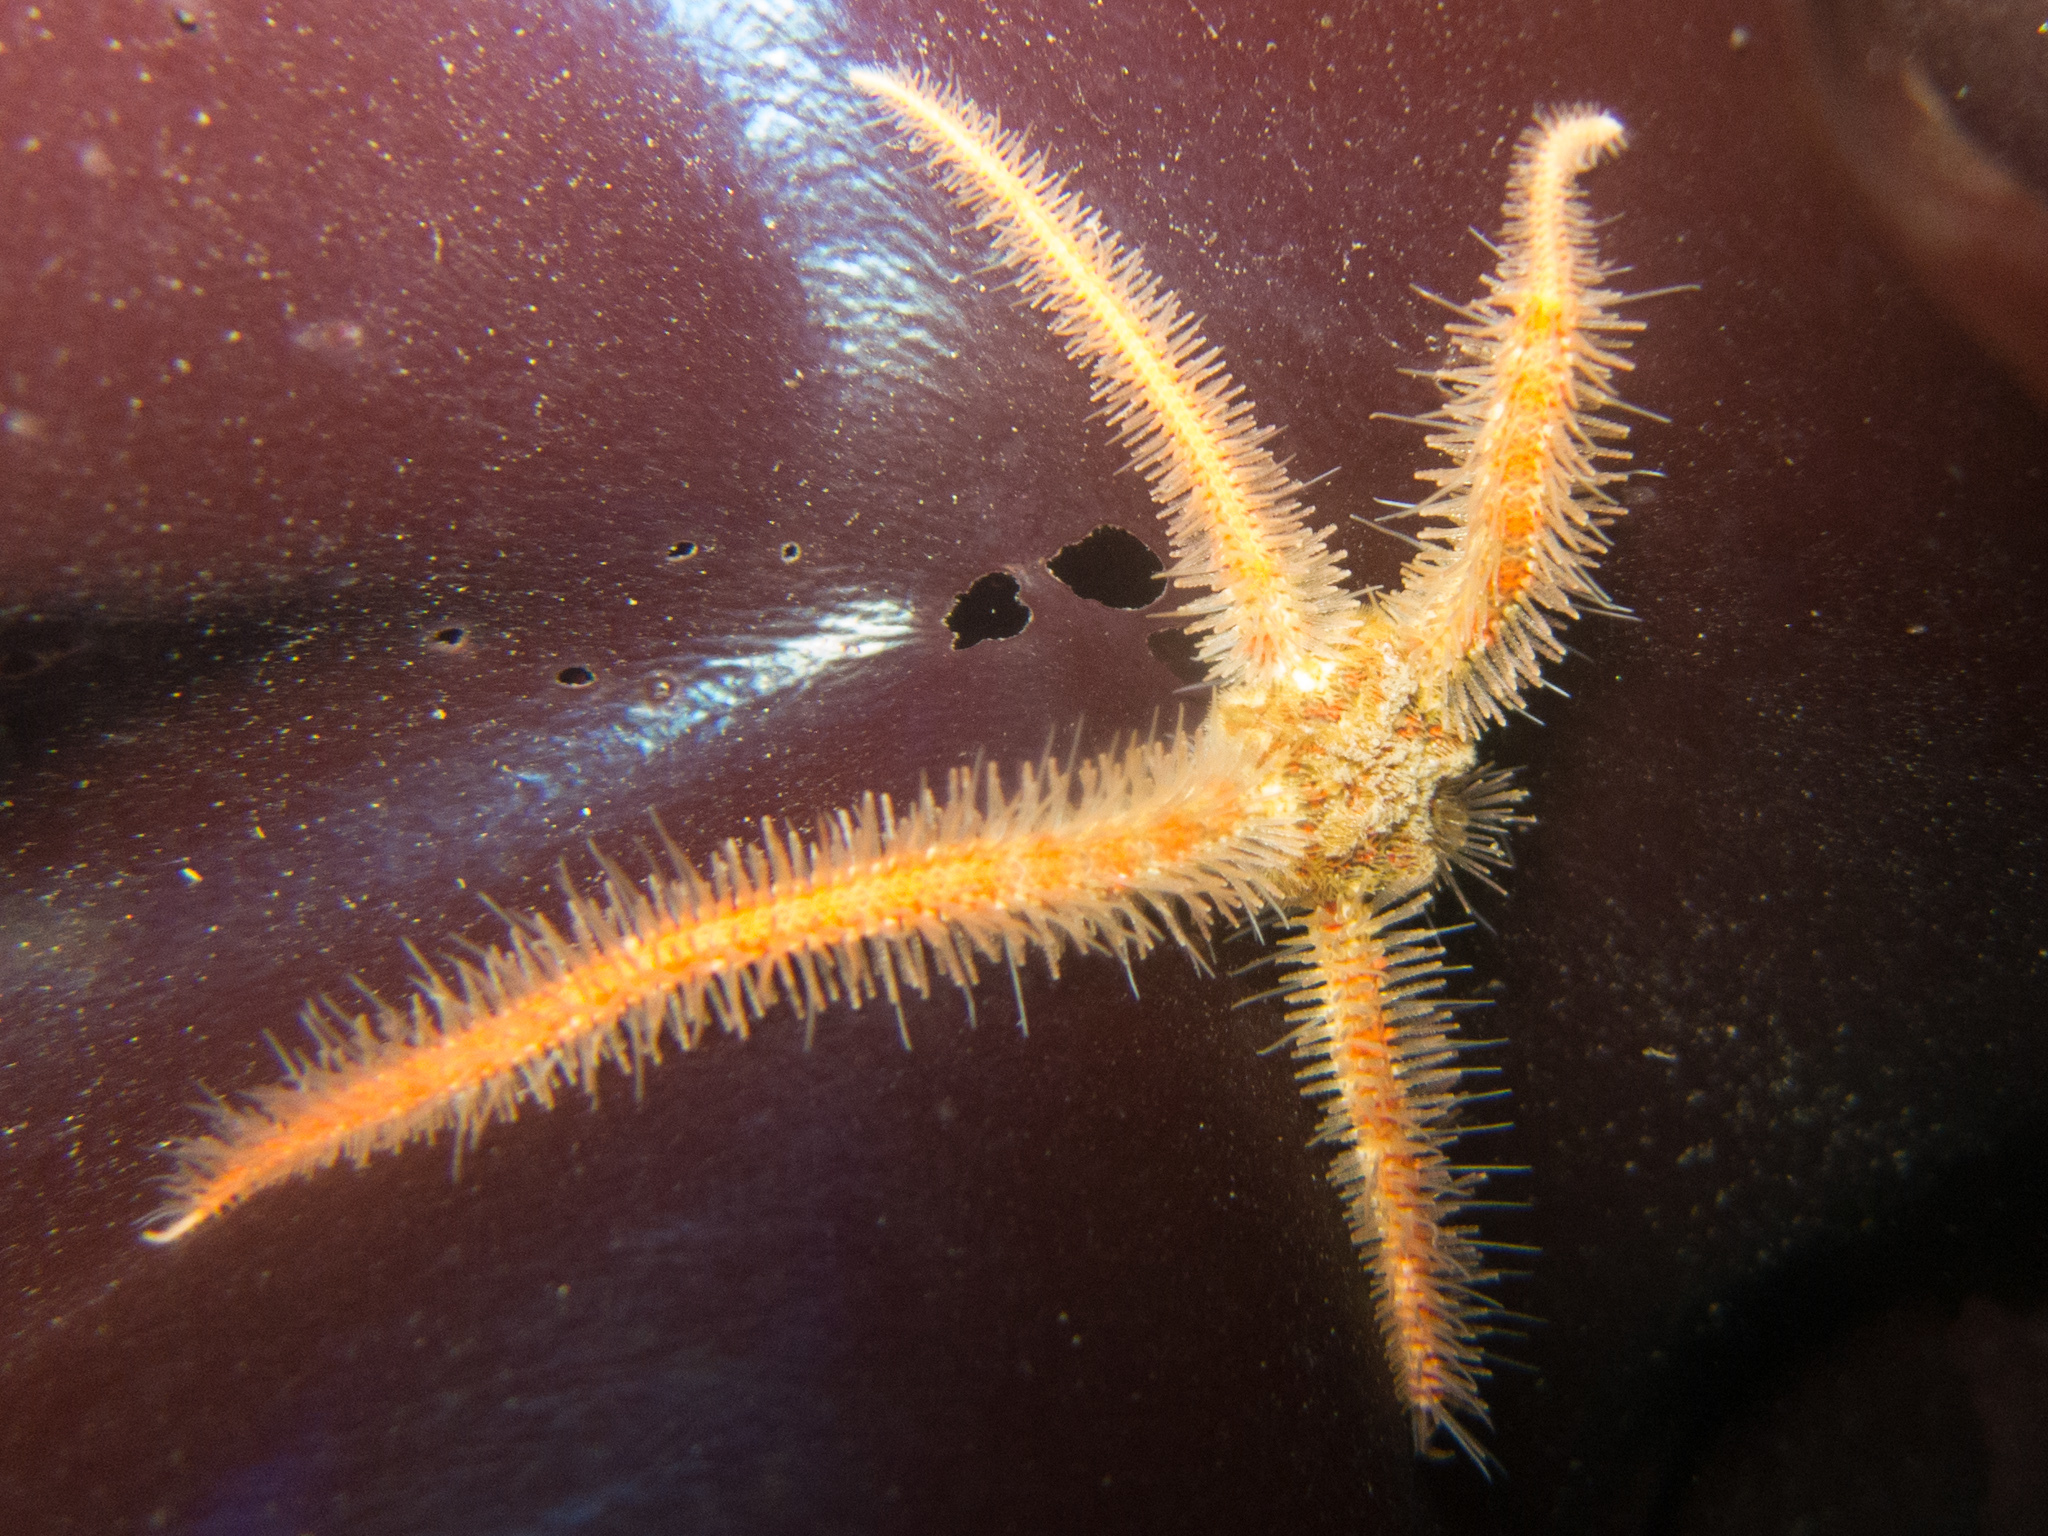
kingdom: Animalia
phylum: Echinodermata
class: Ophiuroidea
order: Amphilepidida
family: Ophiotrichidae
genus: Ophiothrix
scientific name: Ophiothrix spiculata
